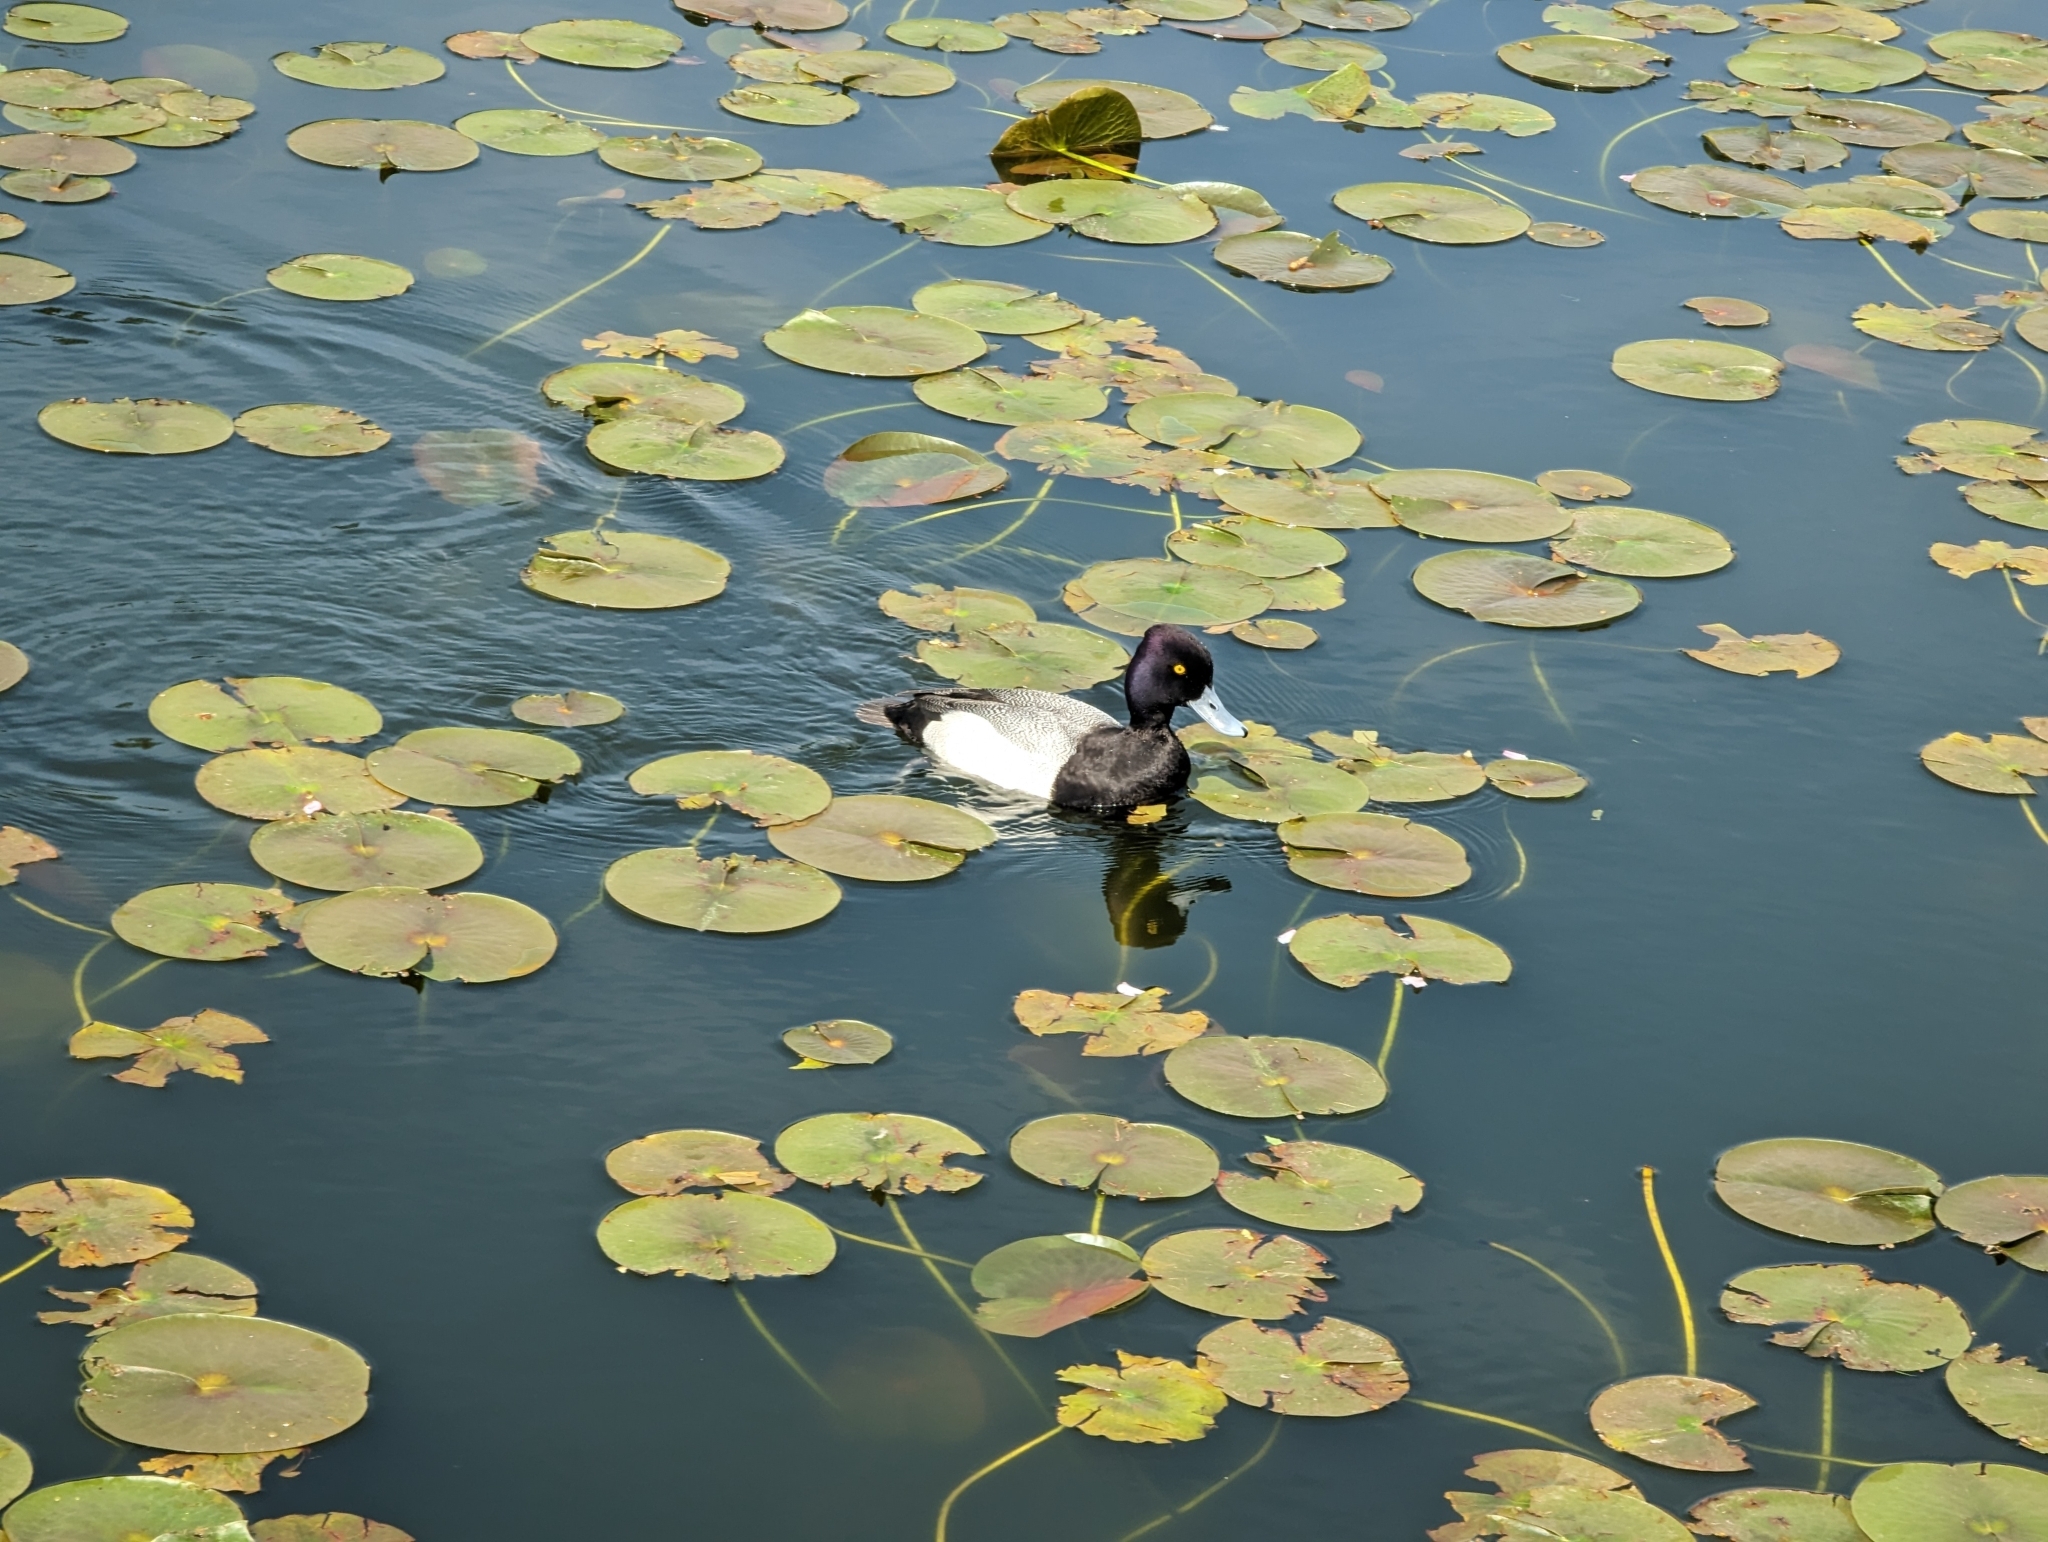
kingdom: Animalia
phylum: Chordata
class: Aves
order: Anseriformes
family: Anatidae
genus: Aythya
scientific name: Aythya affinis
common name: Lesser scaup
